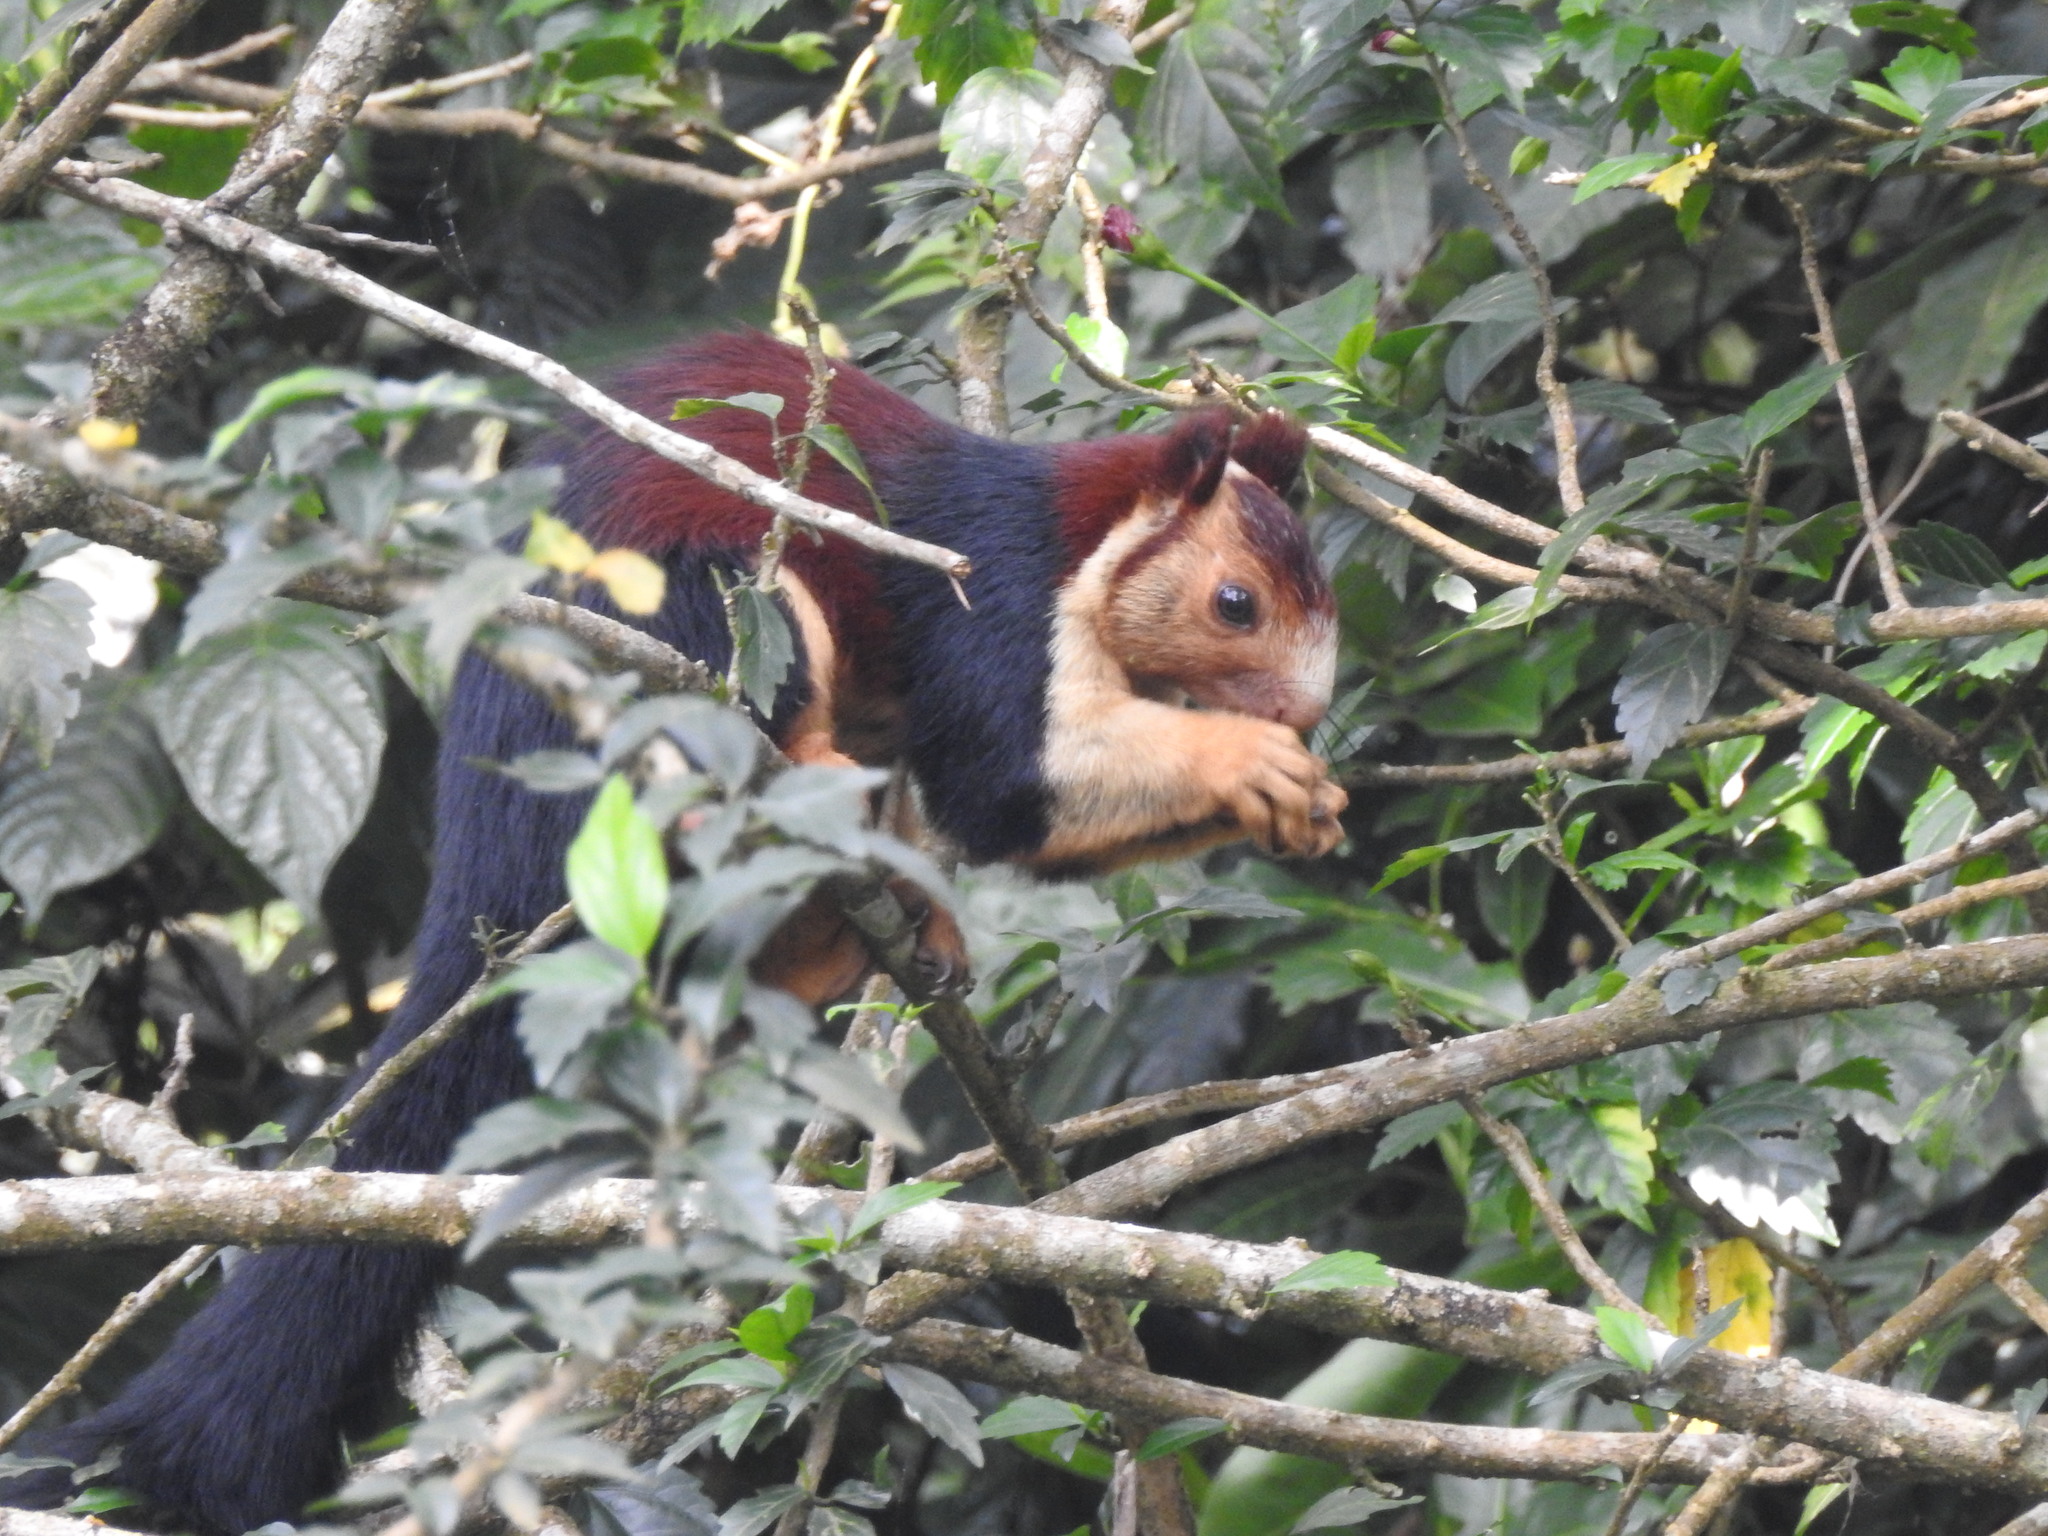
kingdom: Animalia
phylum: Chordata
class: Mammalia
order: Rodentia
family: Sciuridae
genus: Ratufa
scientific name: Ratufa indica
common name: Indian giant squirrel
